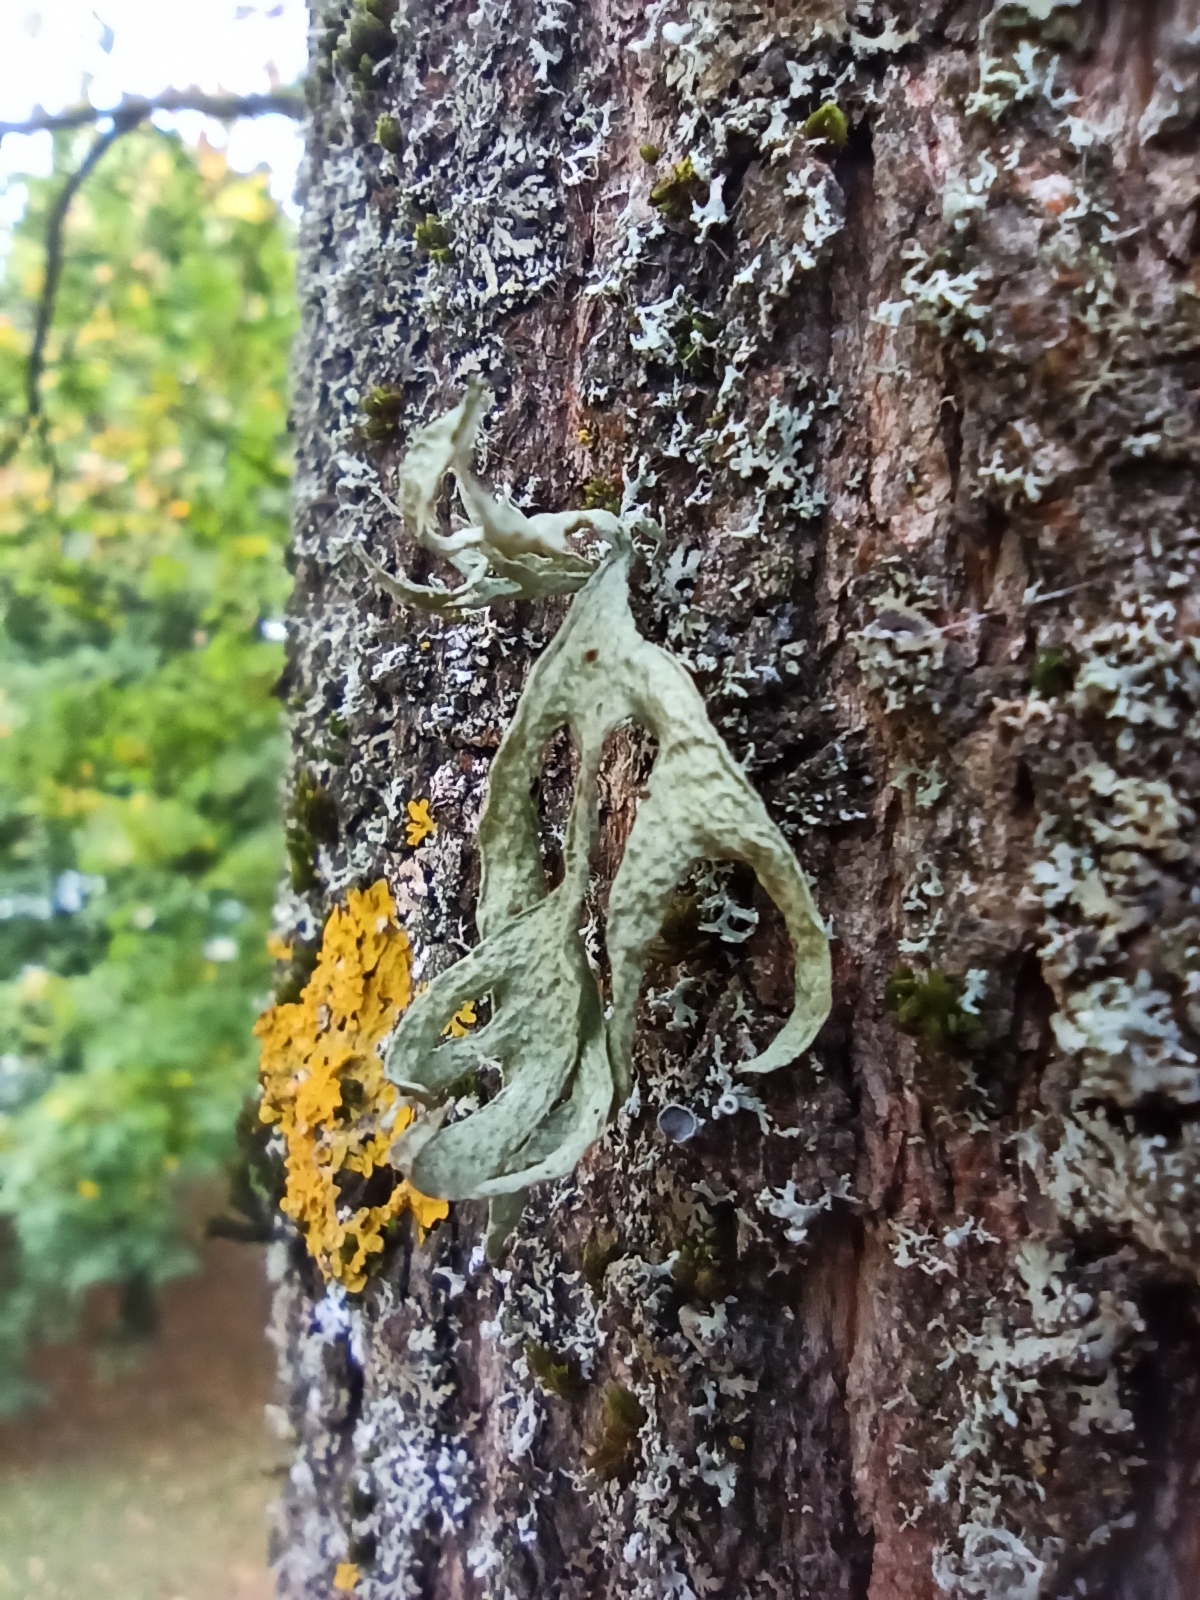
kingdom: Fungi
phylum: Ascomycota
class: Lecanoromycetes
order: Lecanorales
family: Ramalinaceae
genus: Ramalina
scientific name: Ramalina fraxinea
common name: Cartilage lichen
